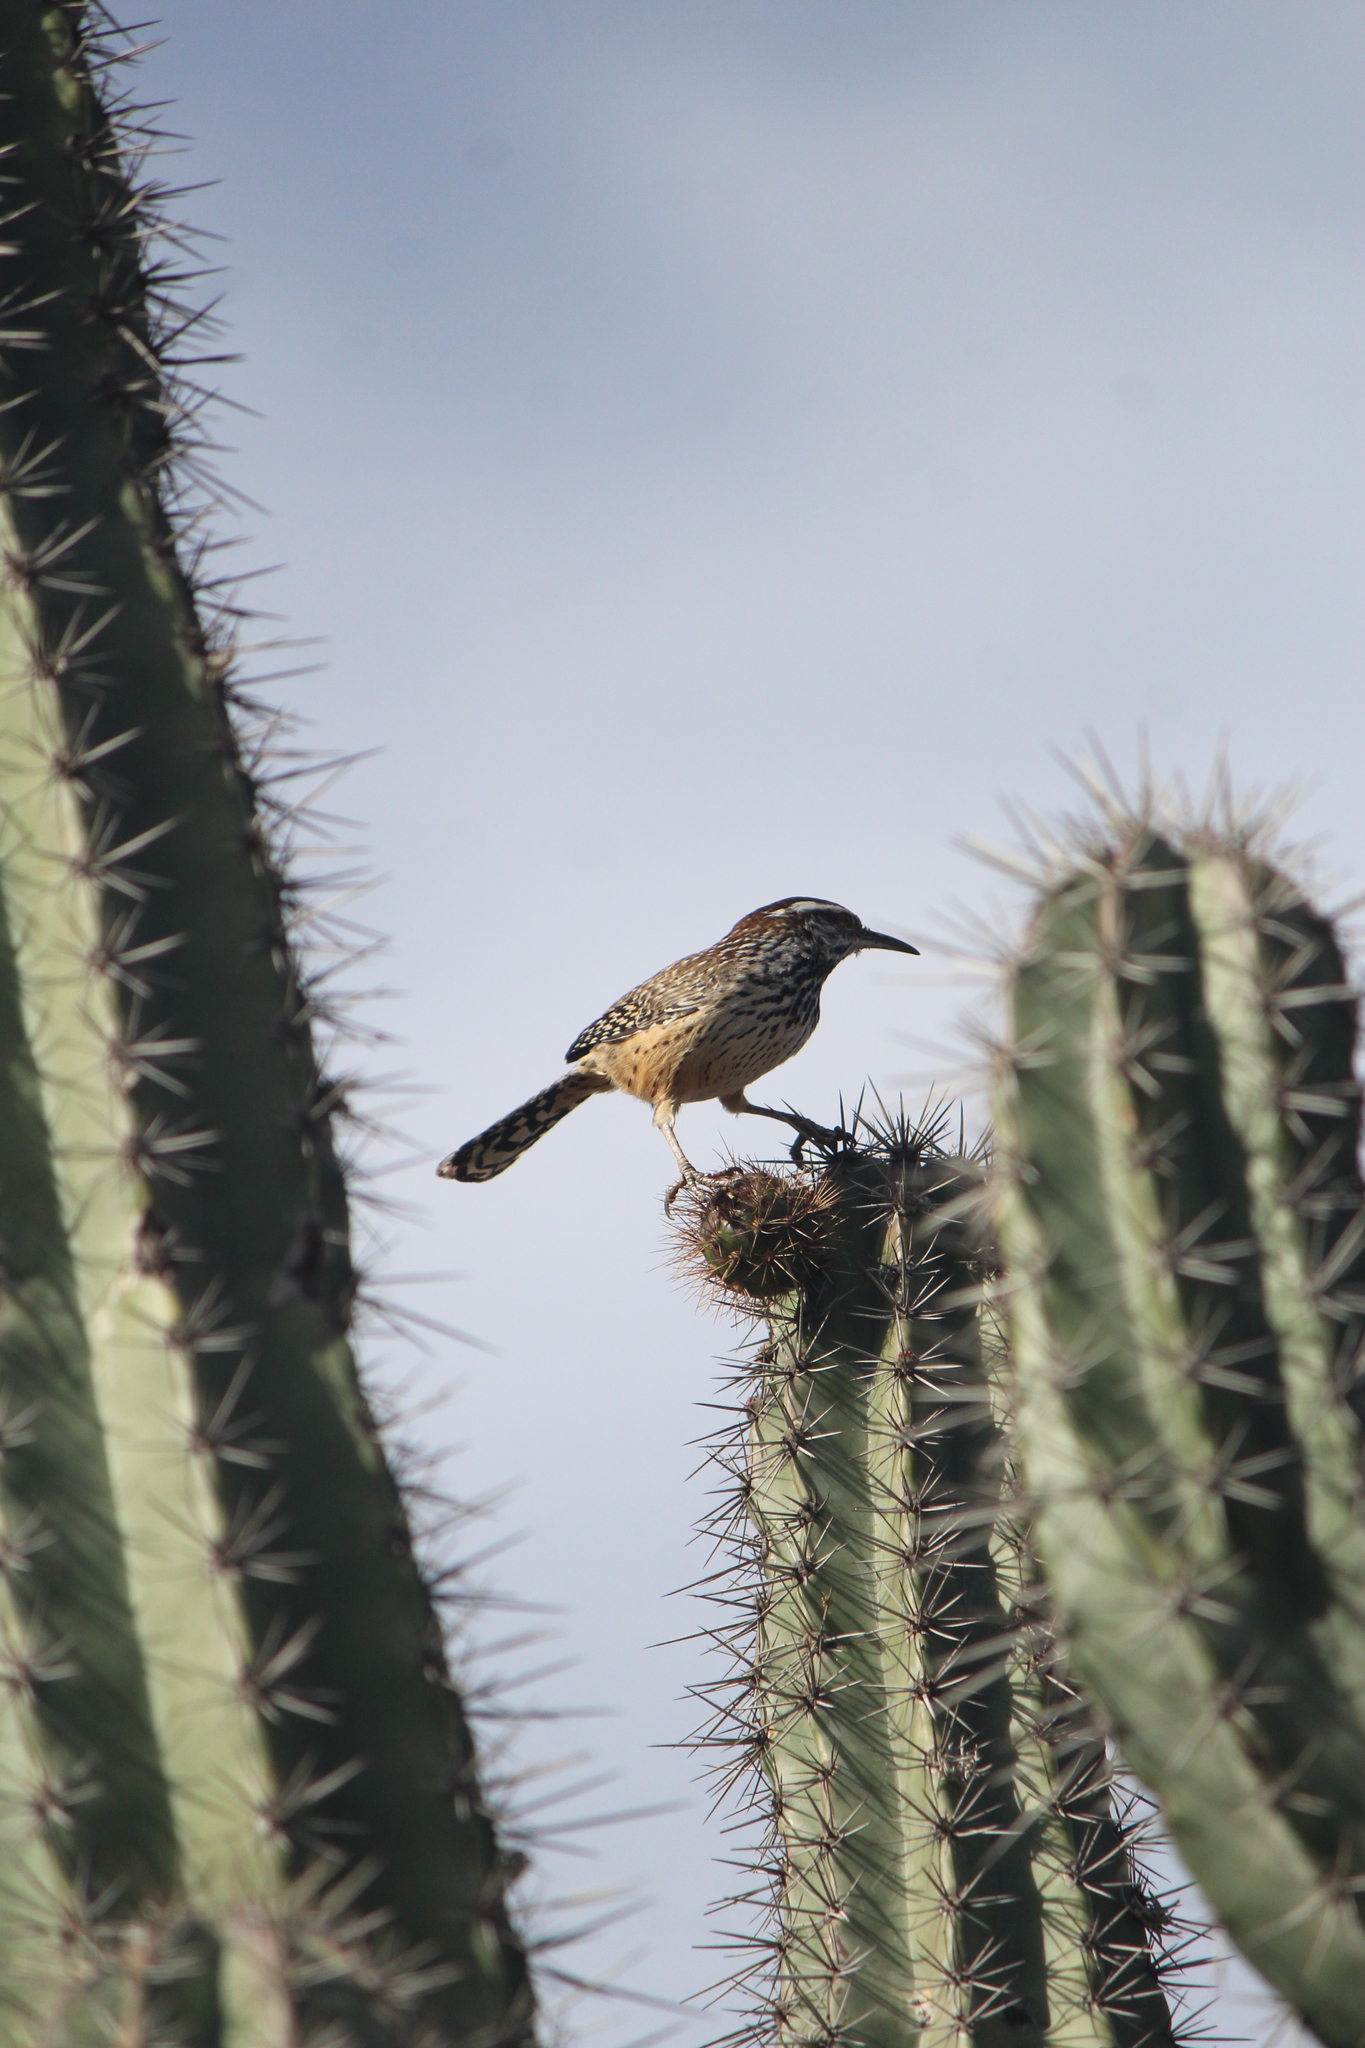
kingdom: Animalia
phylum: Chordata
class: Aves
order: Passeriformes
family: Troglodytidae
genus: Campylorhynchus
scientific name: Campylorhynchus brunneicapillus
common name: Cactus wren
